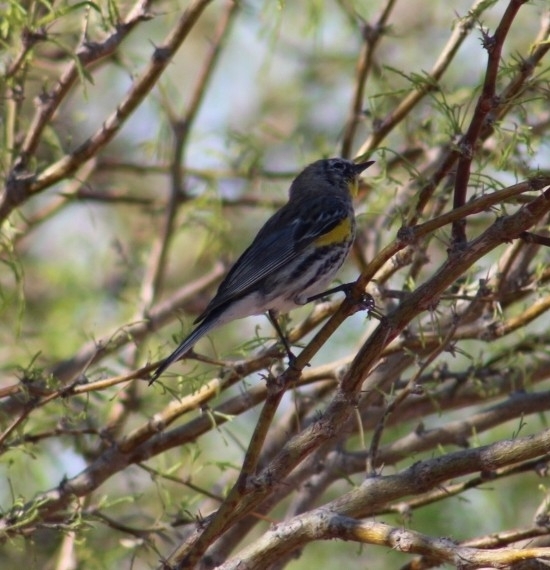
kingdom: Animalia
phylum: Chordata
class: Aves
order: Passeriformes
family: Parulidae
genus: Setophaga
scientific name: Setophaga coronata
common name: Myrtle warbler
